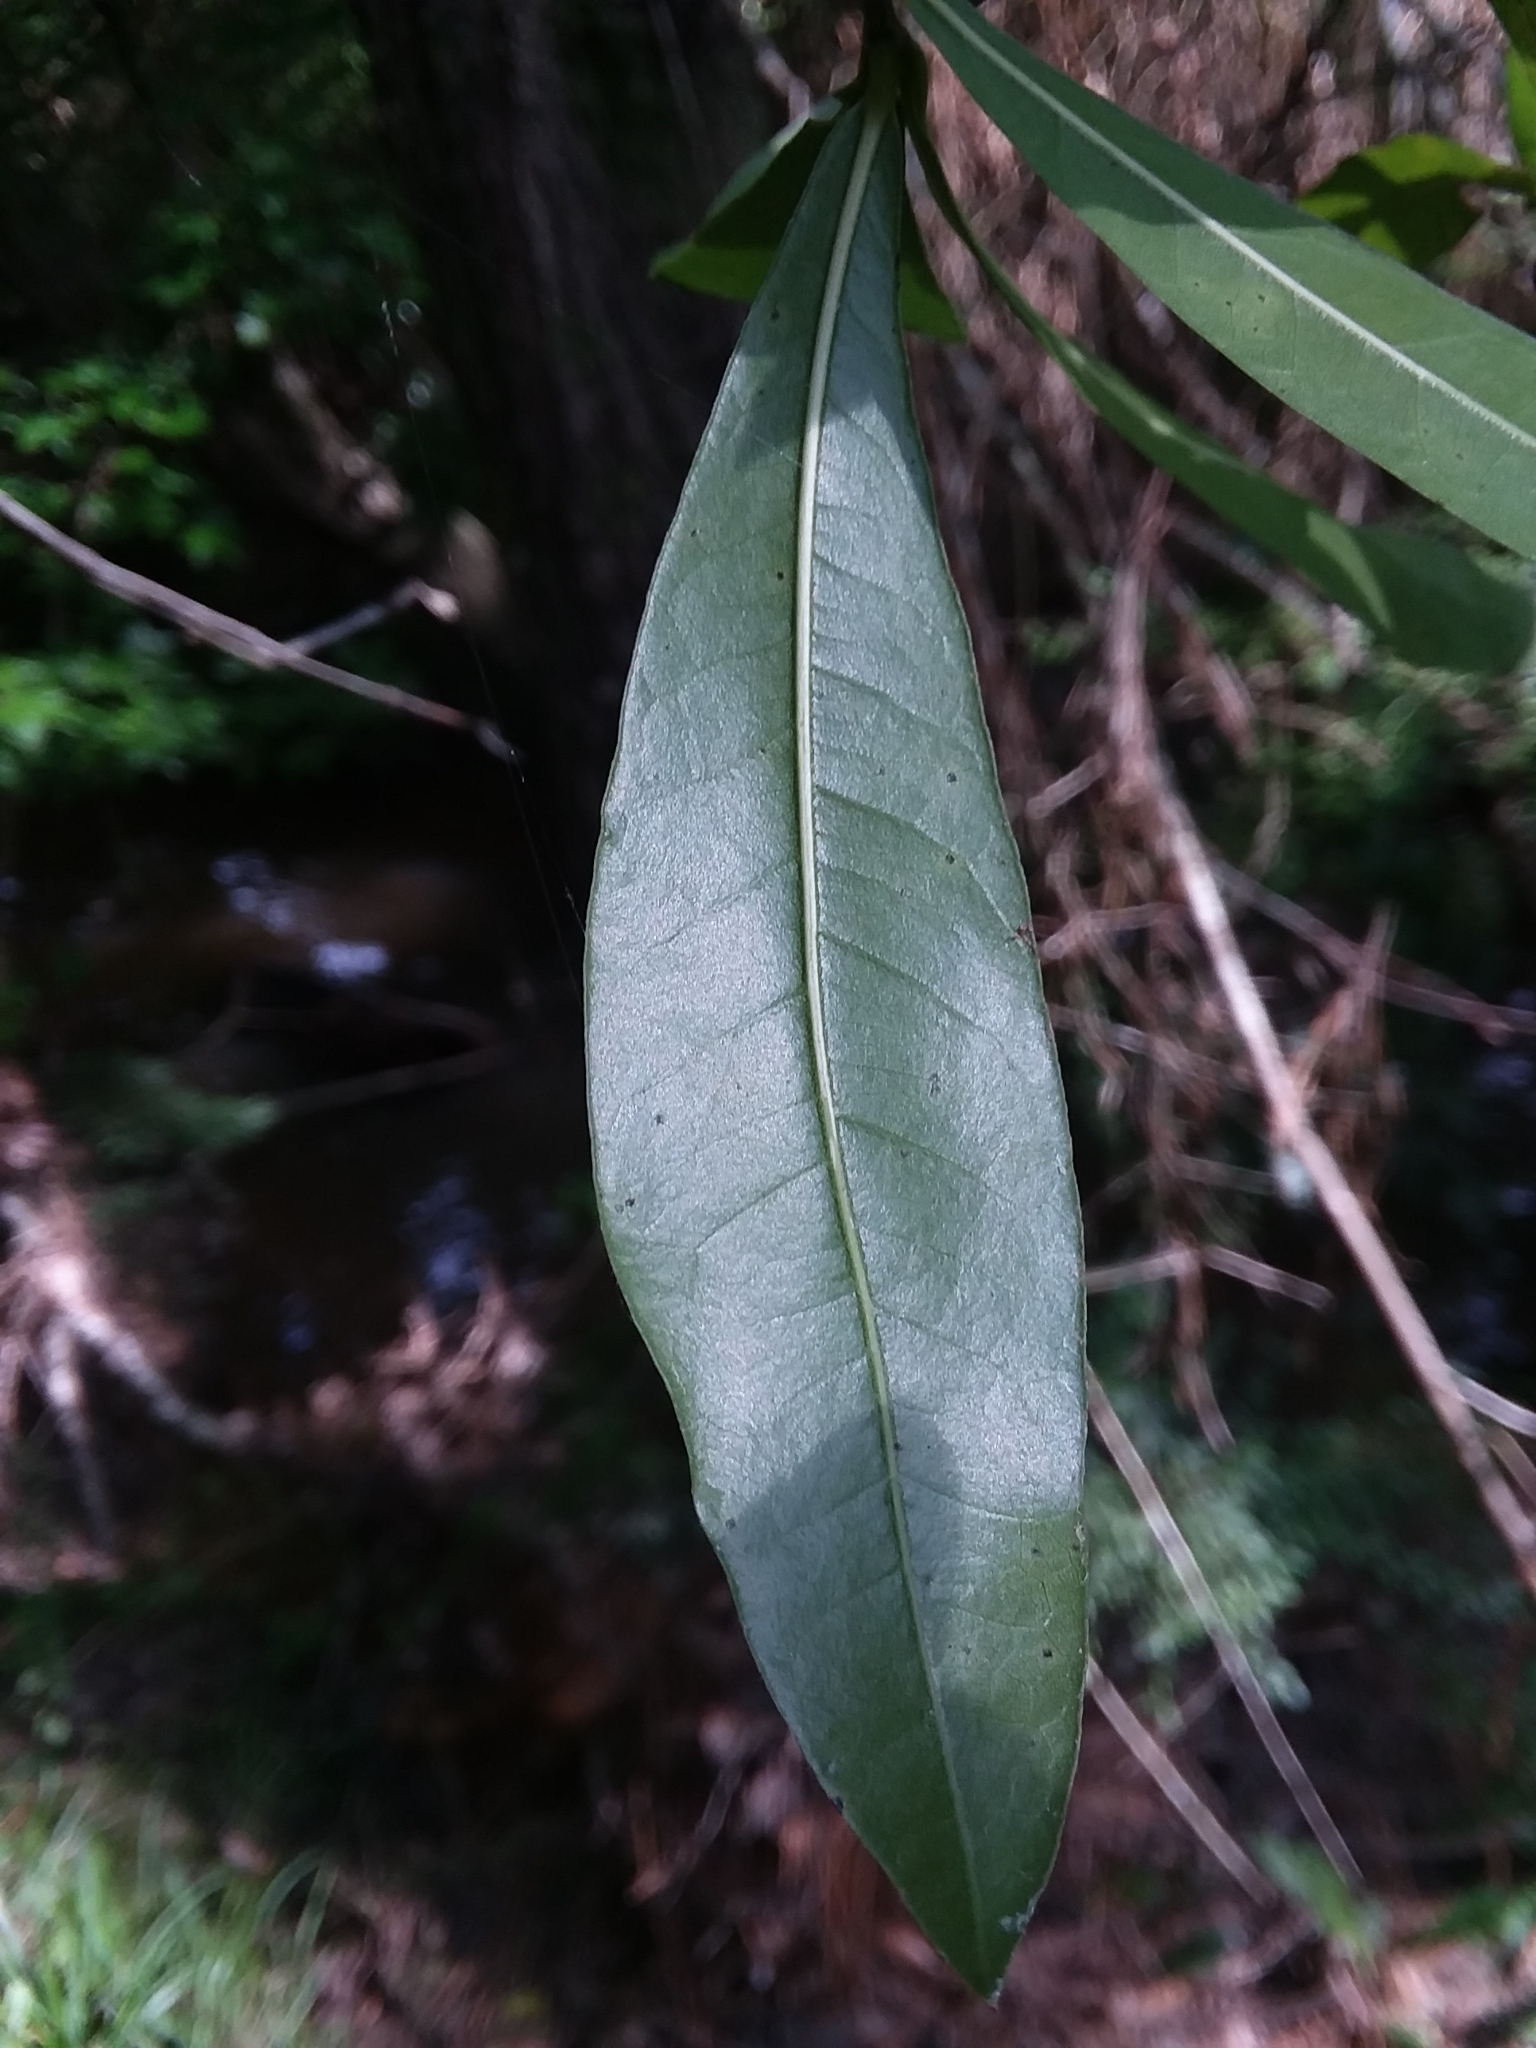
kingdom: Plantae
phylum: Tracheophyta
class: Magnoliopsida
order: Fagales
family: Fagaceae
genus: Quercus
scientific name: Quercus hemisphaerica
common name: Darlington oak
